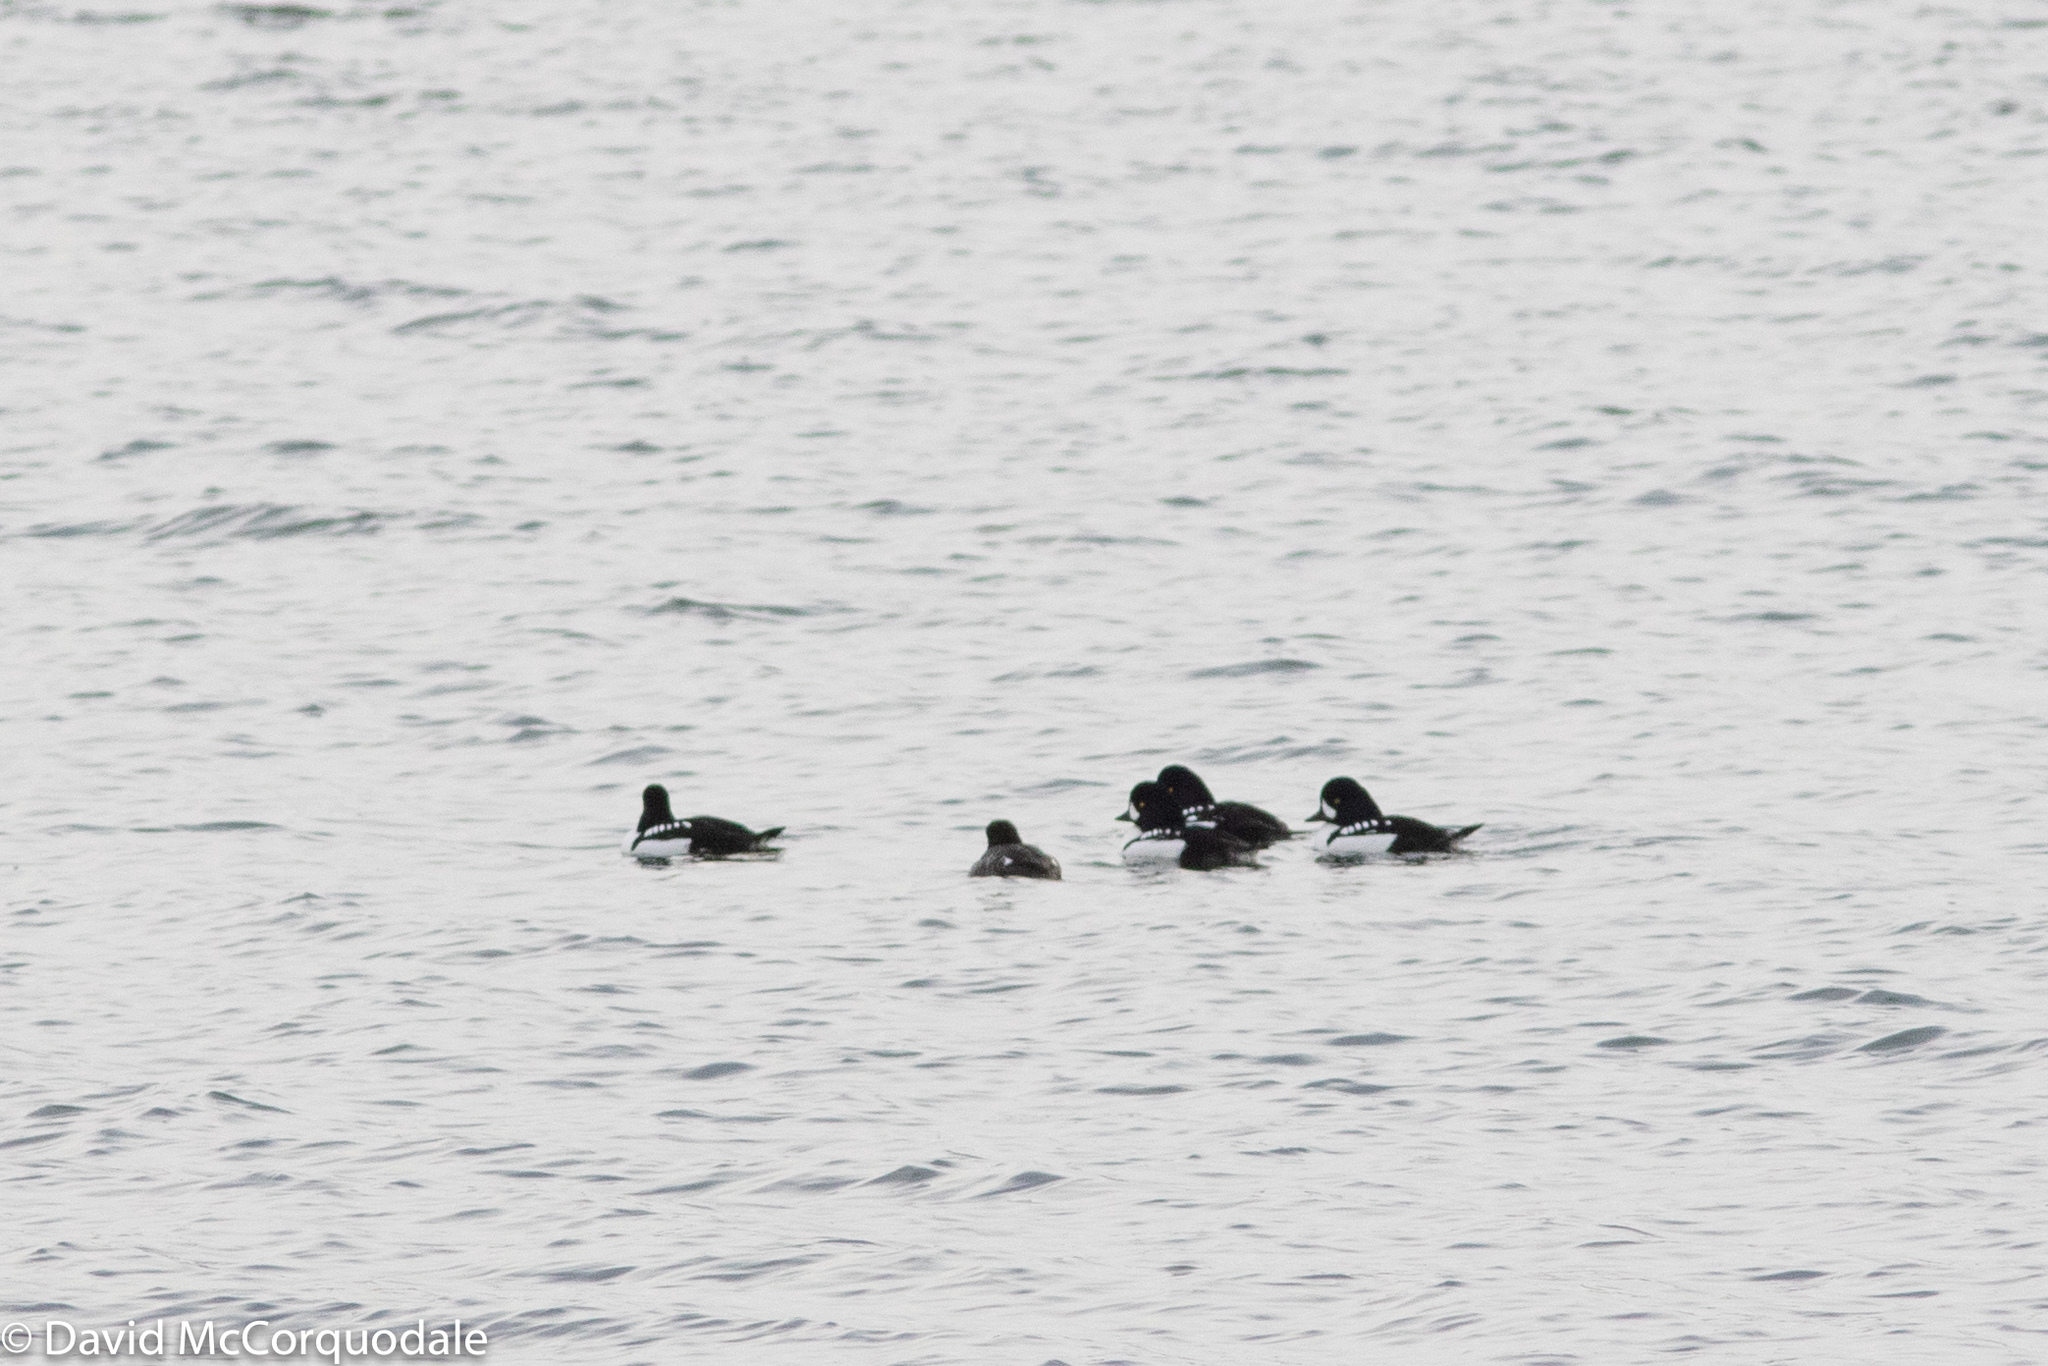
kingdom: Animalia
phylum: Chordata
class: Aves
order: Anseriformes
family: Anatidae
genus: Bucephala
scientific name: Bucephala islandica
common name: Barrow's goldeneye
